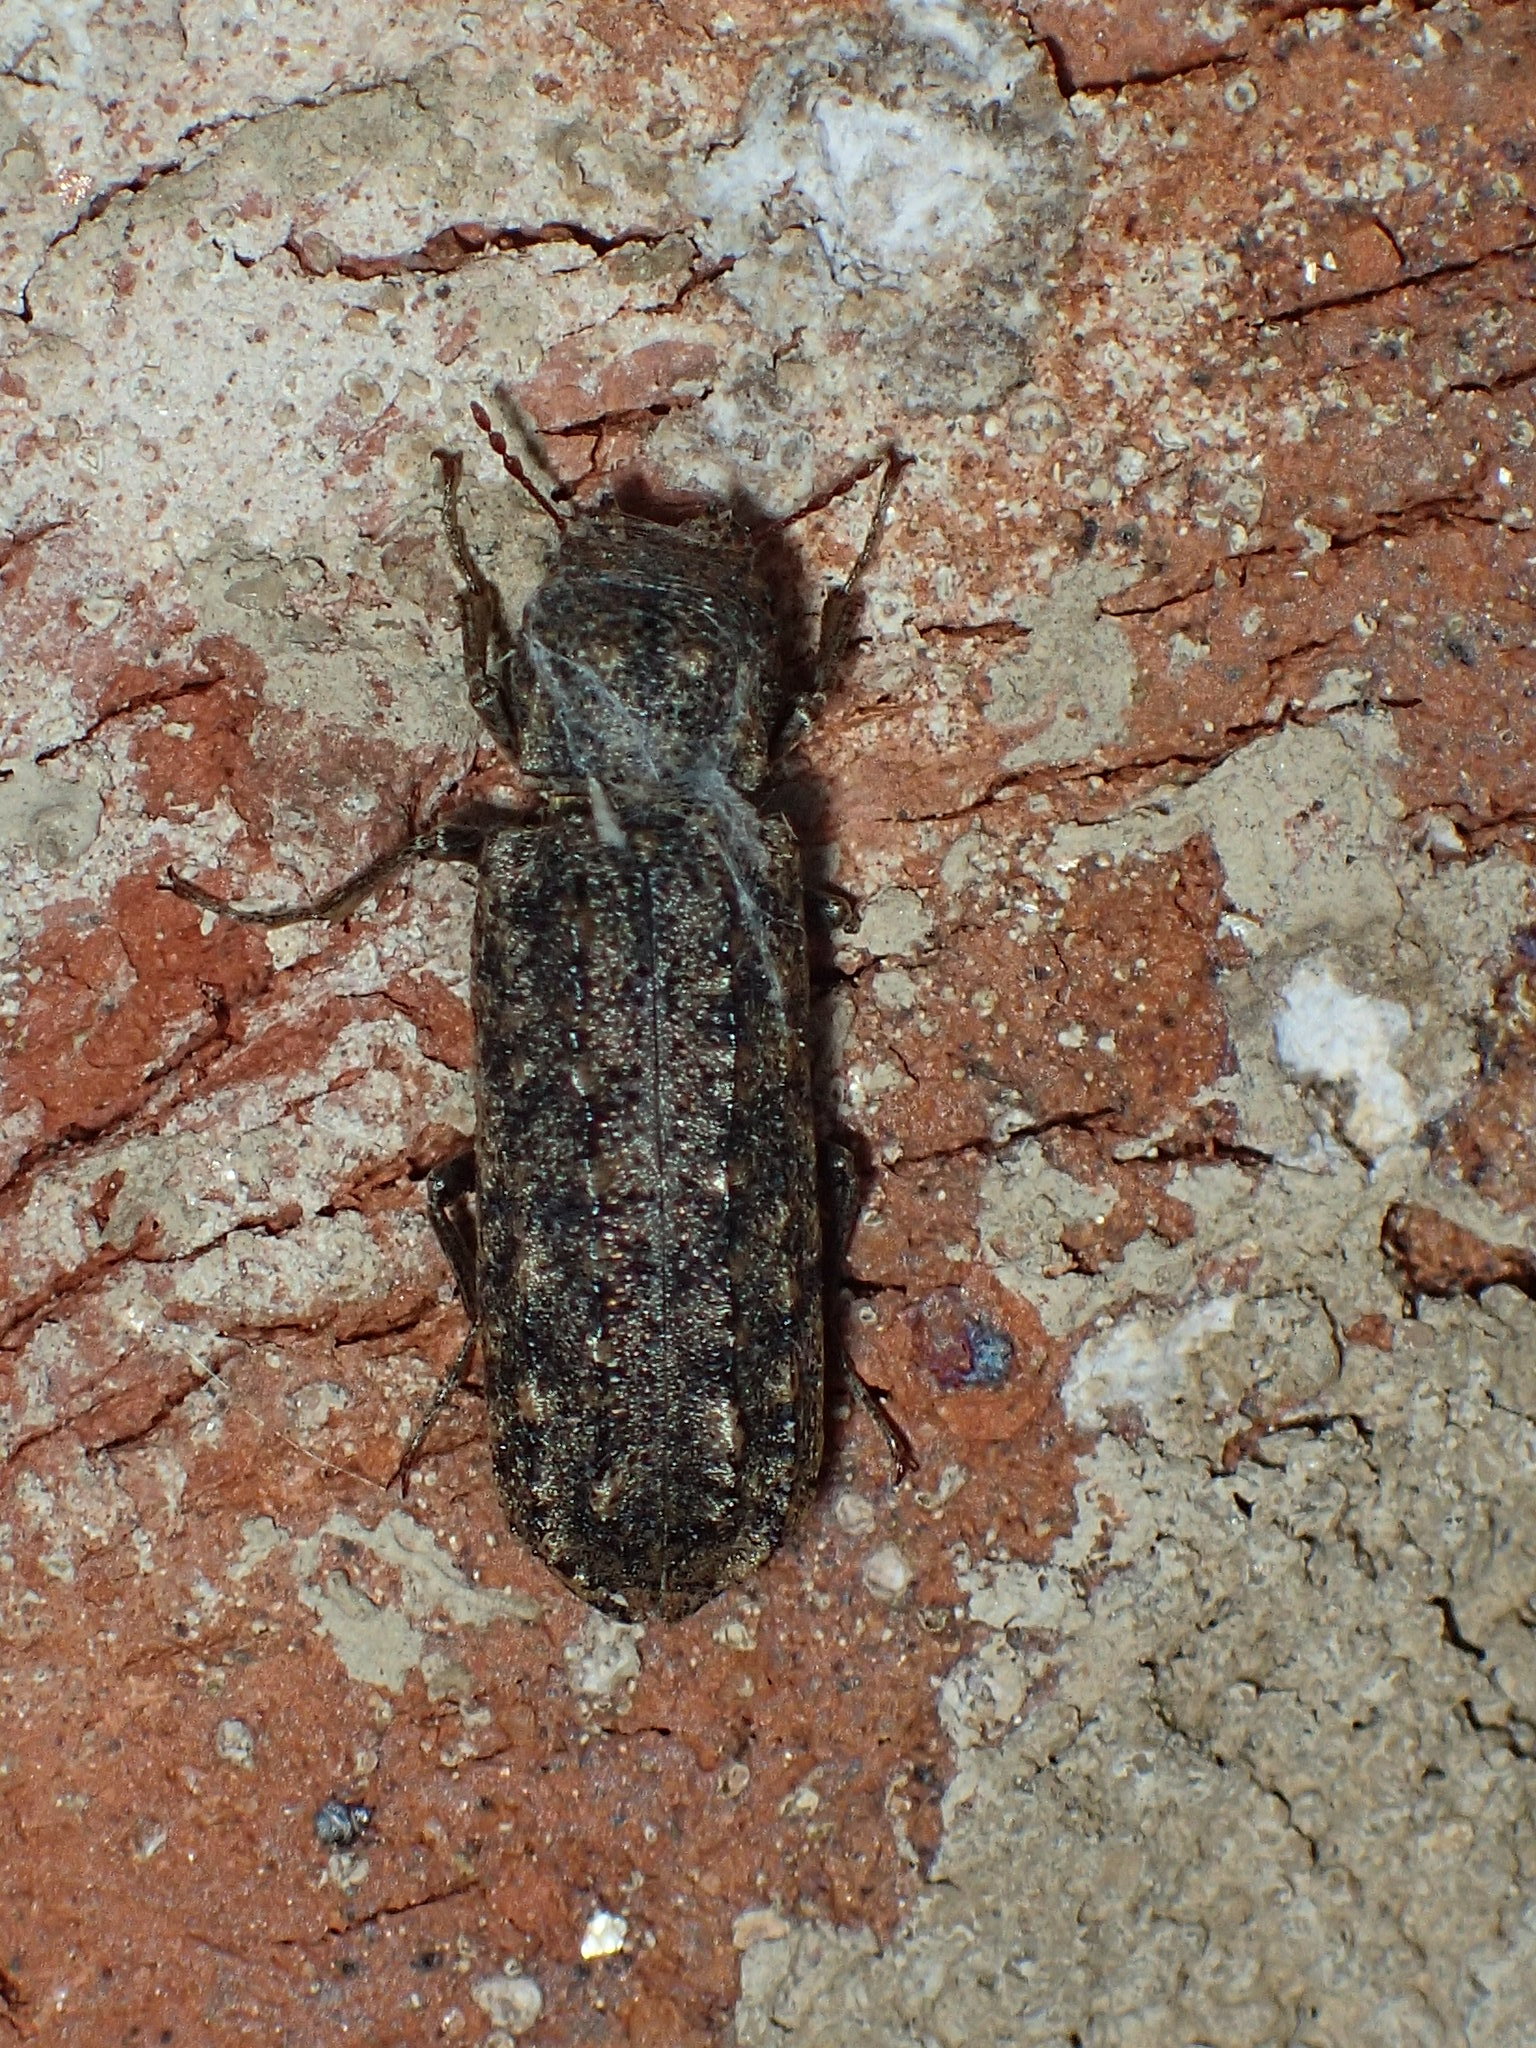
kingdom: Animalia
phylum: Arthropoda
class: Insecta
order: Coleoptera
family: Bostrichidae
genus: Lichenophanes
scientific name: Lichenophanes bicornis
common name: Two-horned powder-post beetle
